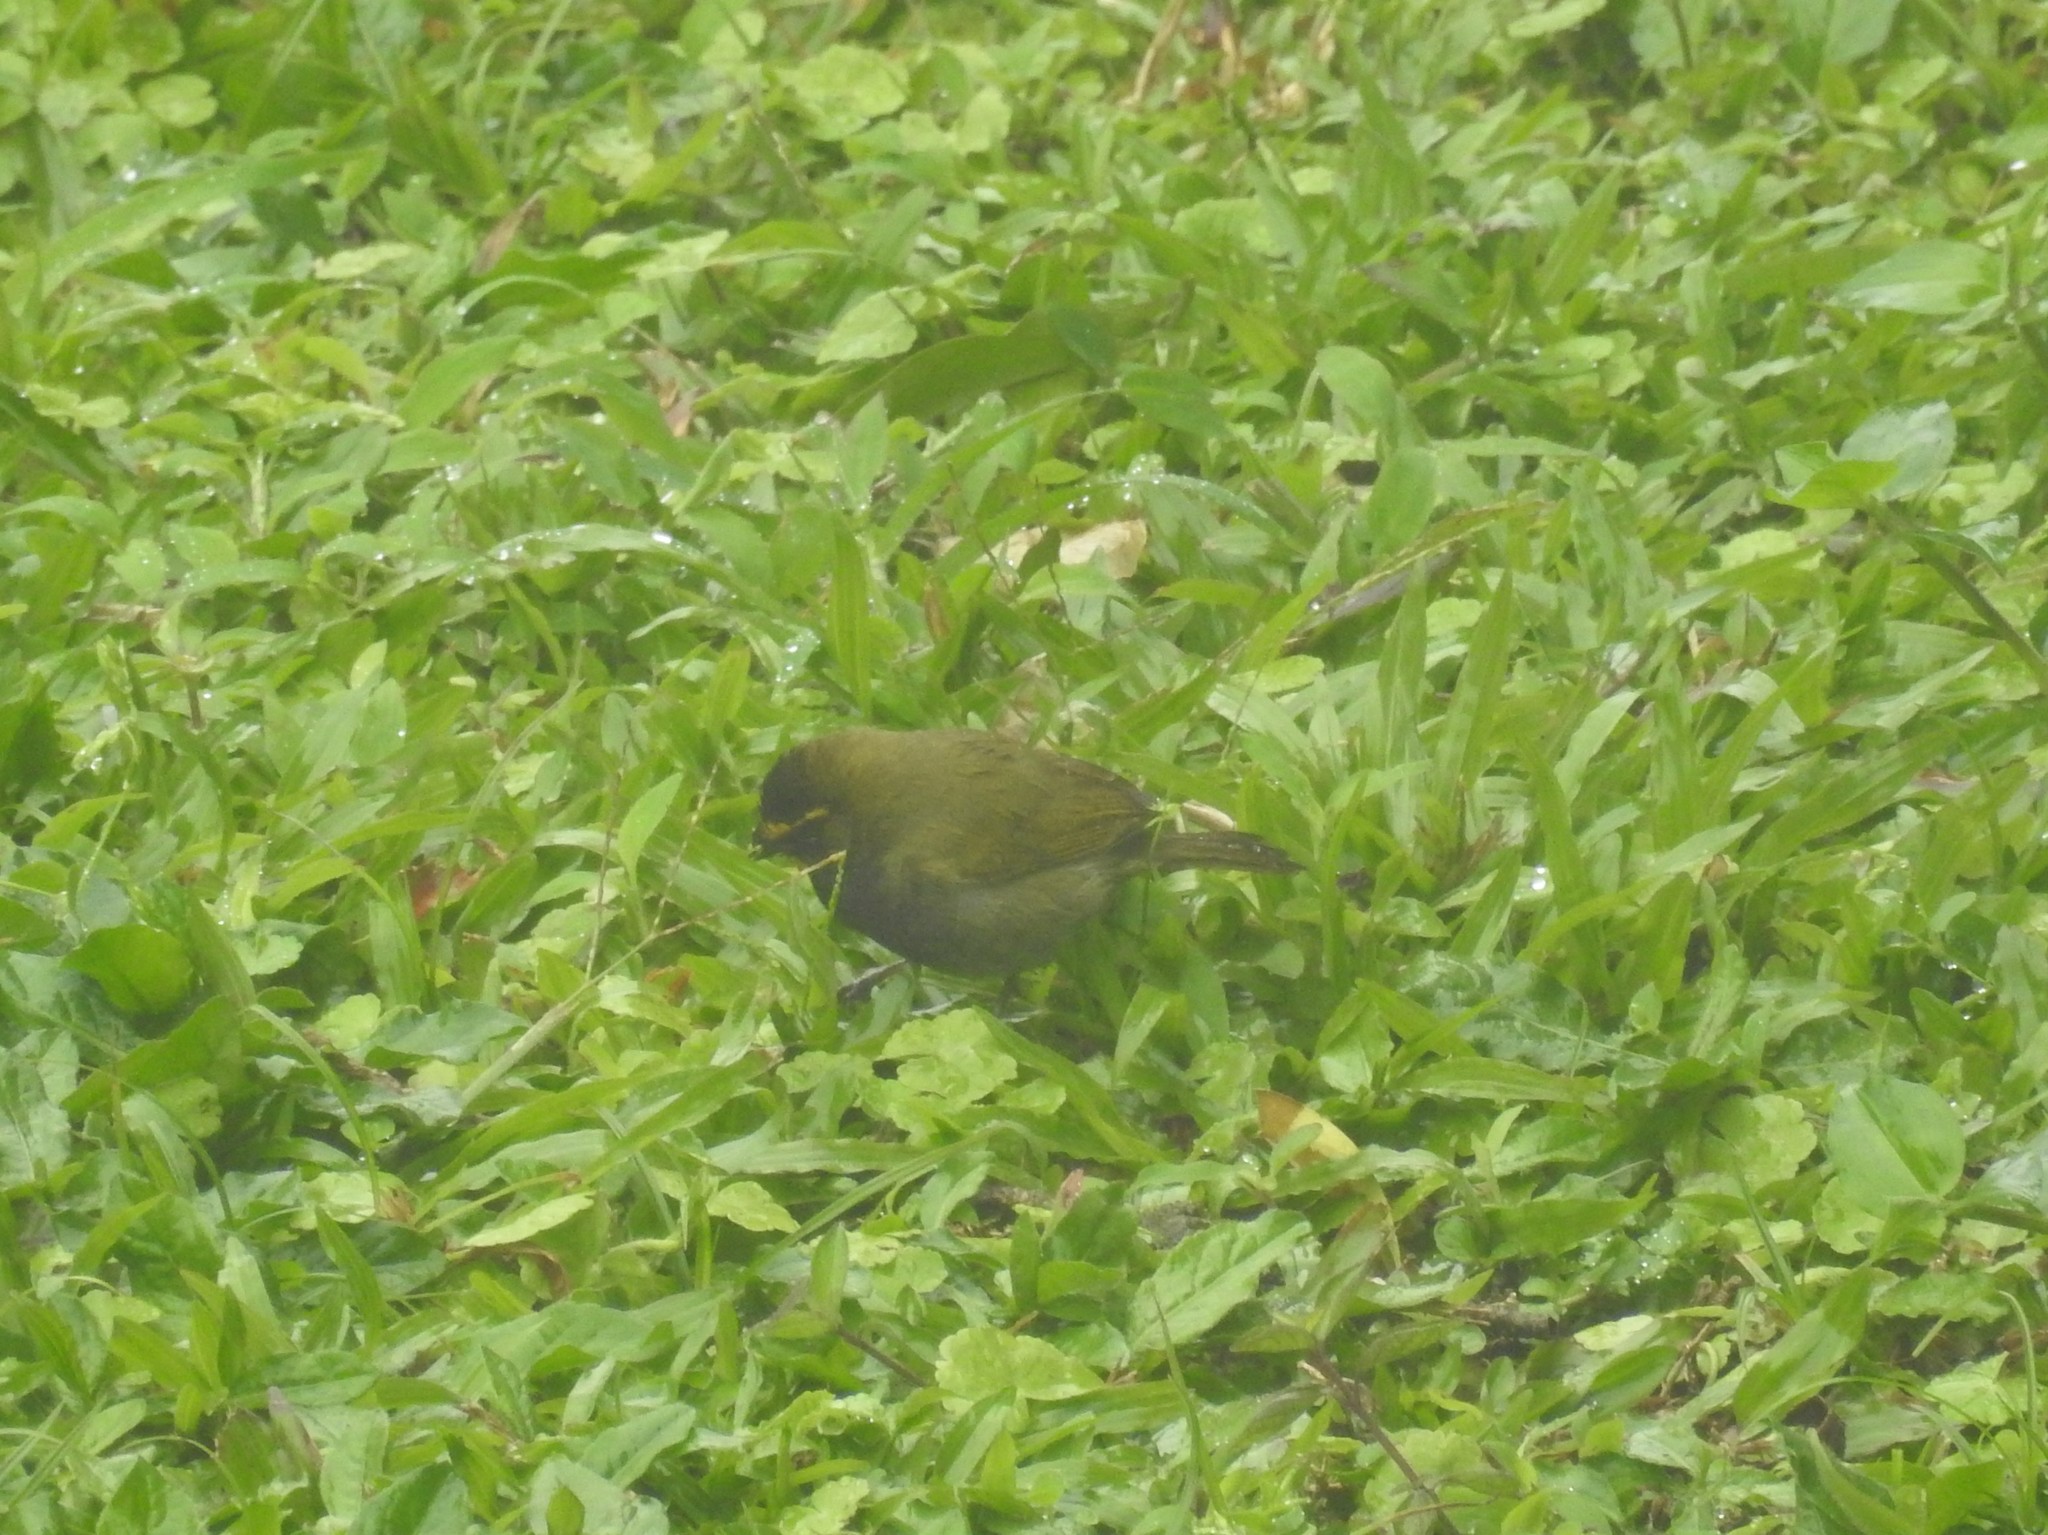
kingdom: Animalia
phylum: Chordata
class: Aves
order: Passeriformes
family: Thraupidae
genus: Tiaris
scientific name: Tiaris olivaceus
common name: Yellow-faced grassquit
